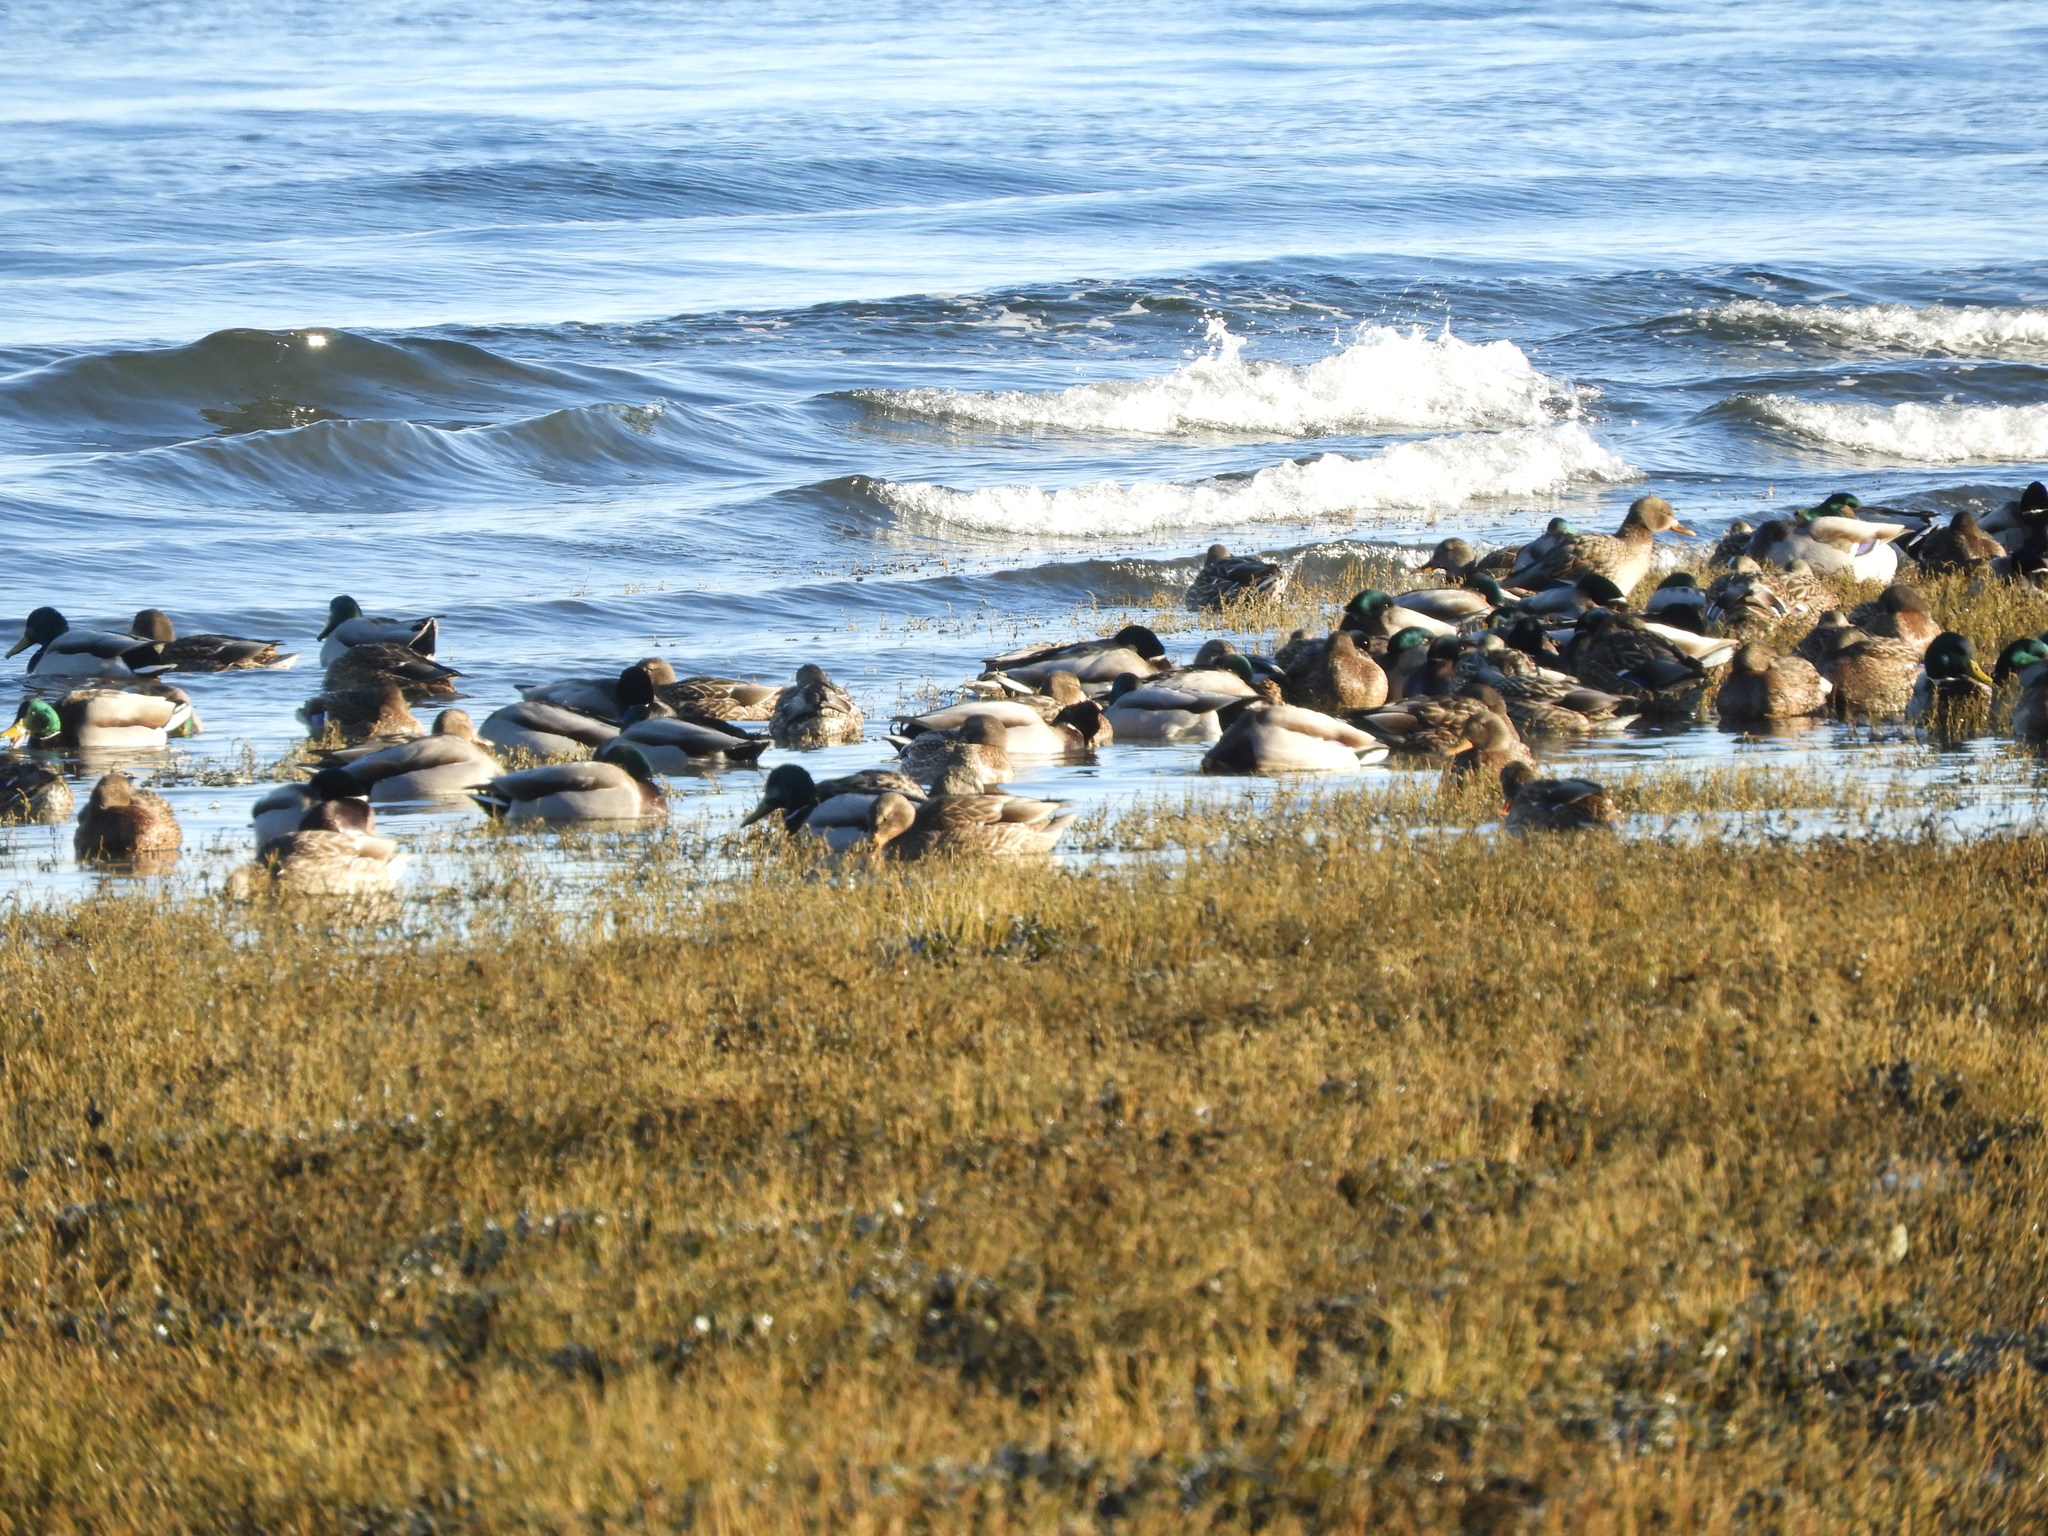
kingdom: Animalia
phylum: Chordata
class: Aves
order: Anseriformes
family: Anatidae
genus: Anas
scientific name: Anas platyrhynchos
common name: Mallard
